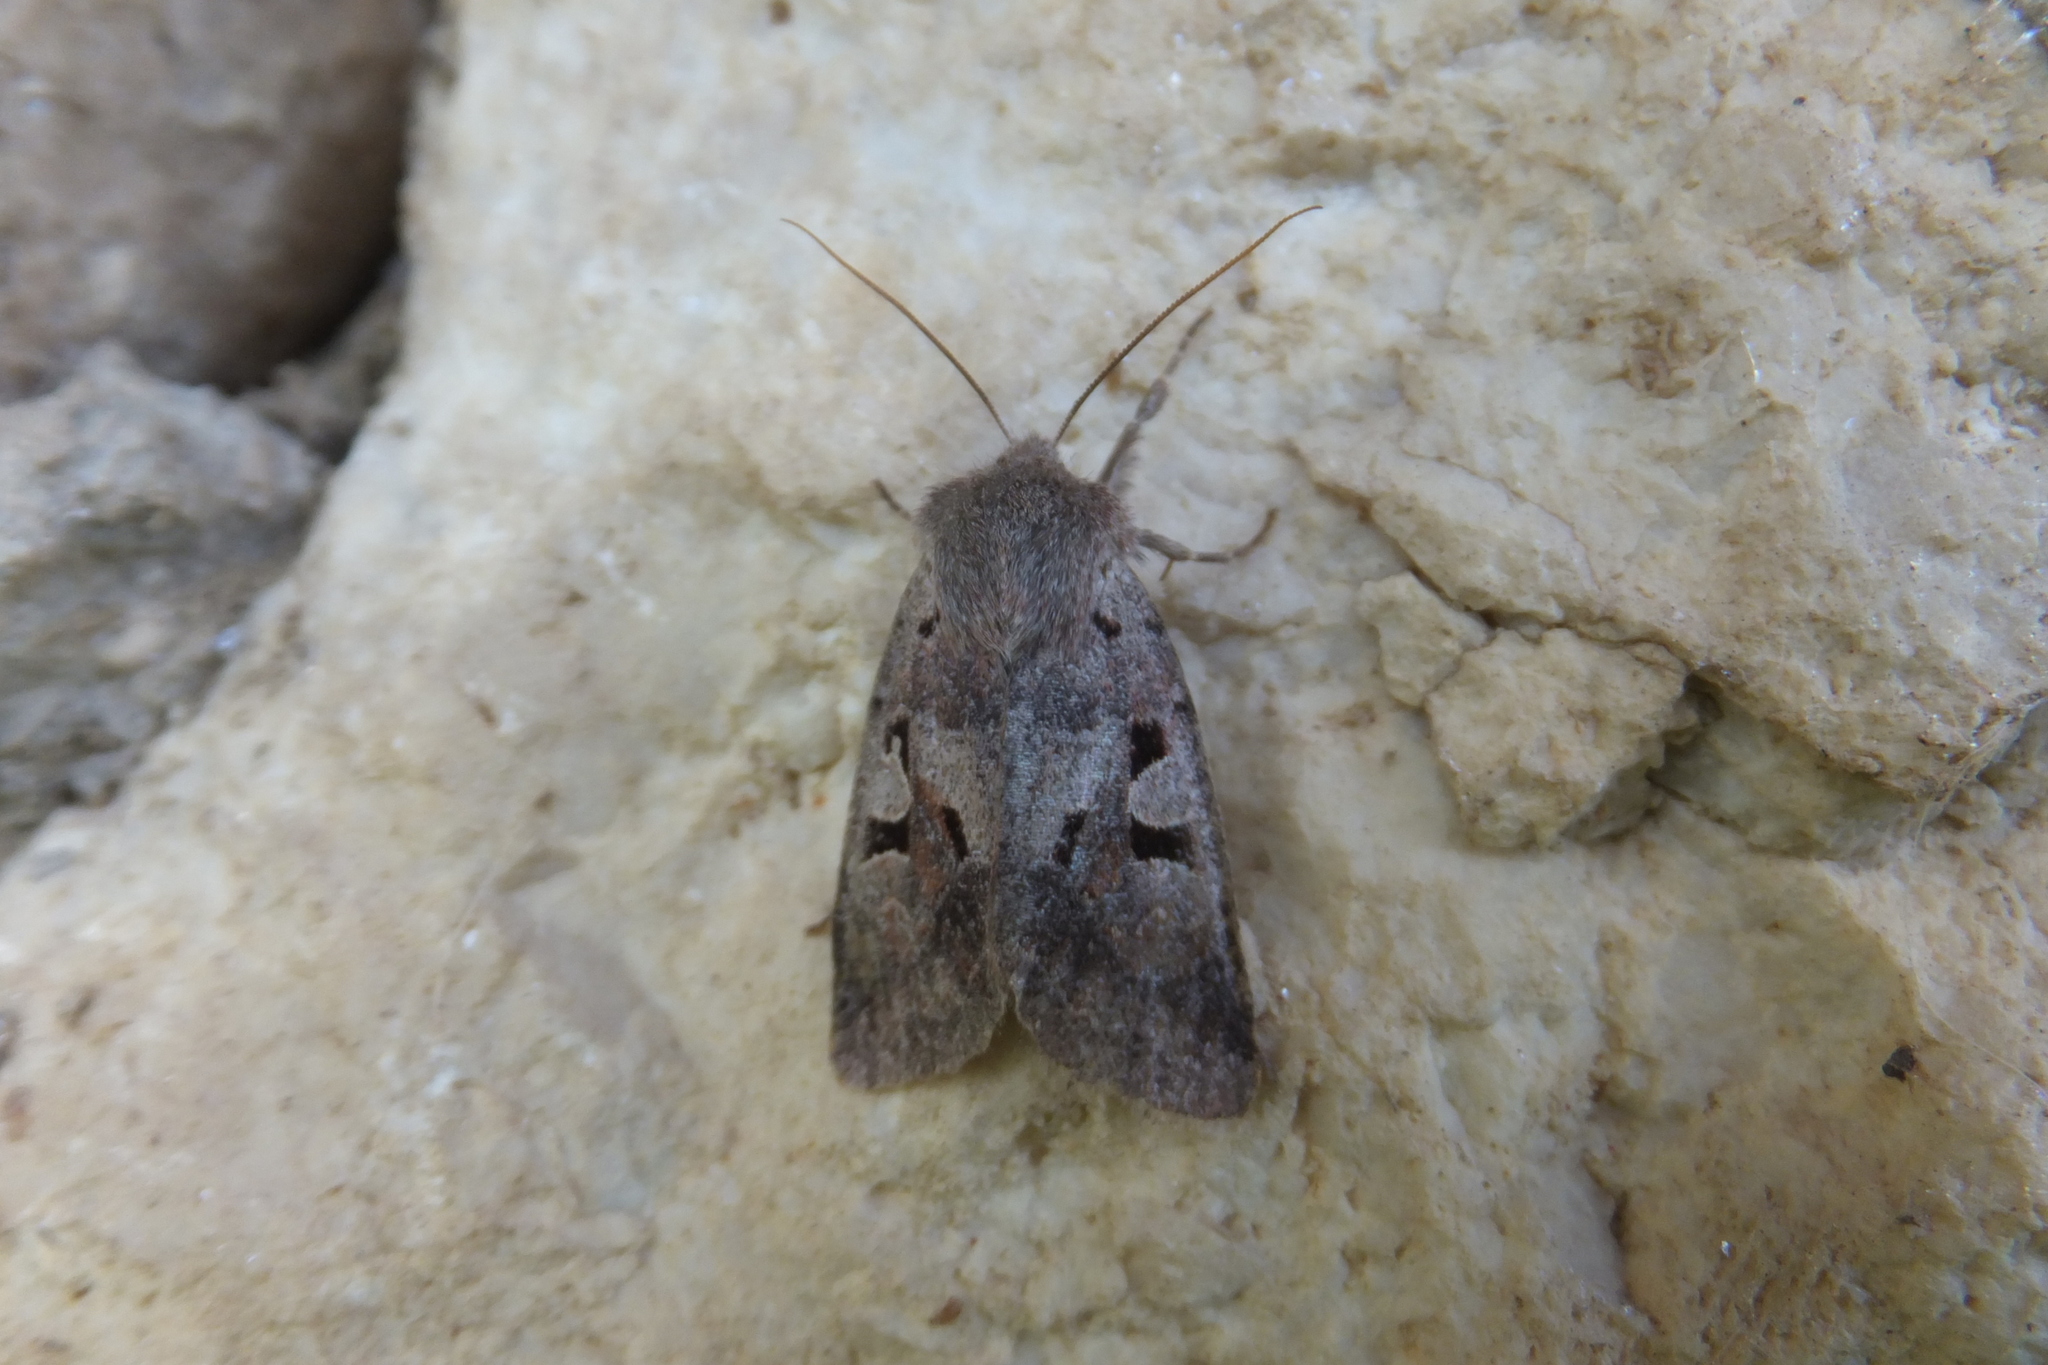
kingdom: Animalia
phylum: Arthropoda
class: Insecta
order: Lepidoptera
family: Noctuidae
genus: Orthosia
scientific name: Orthosia gothica
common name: Hebrew character
